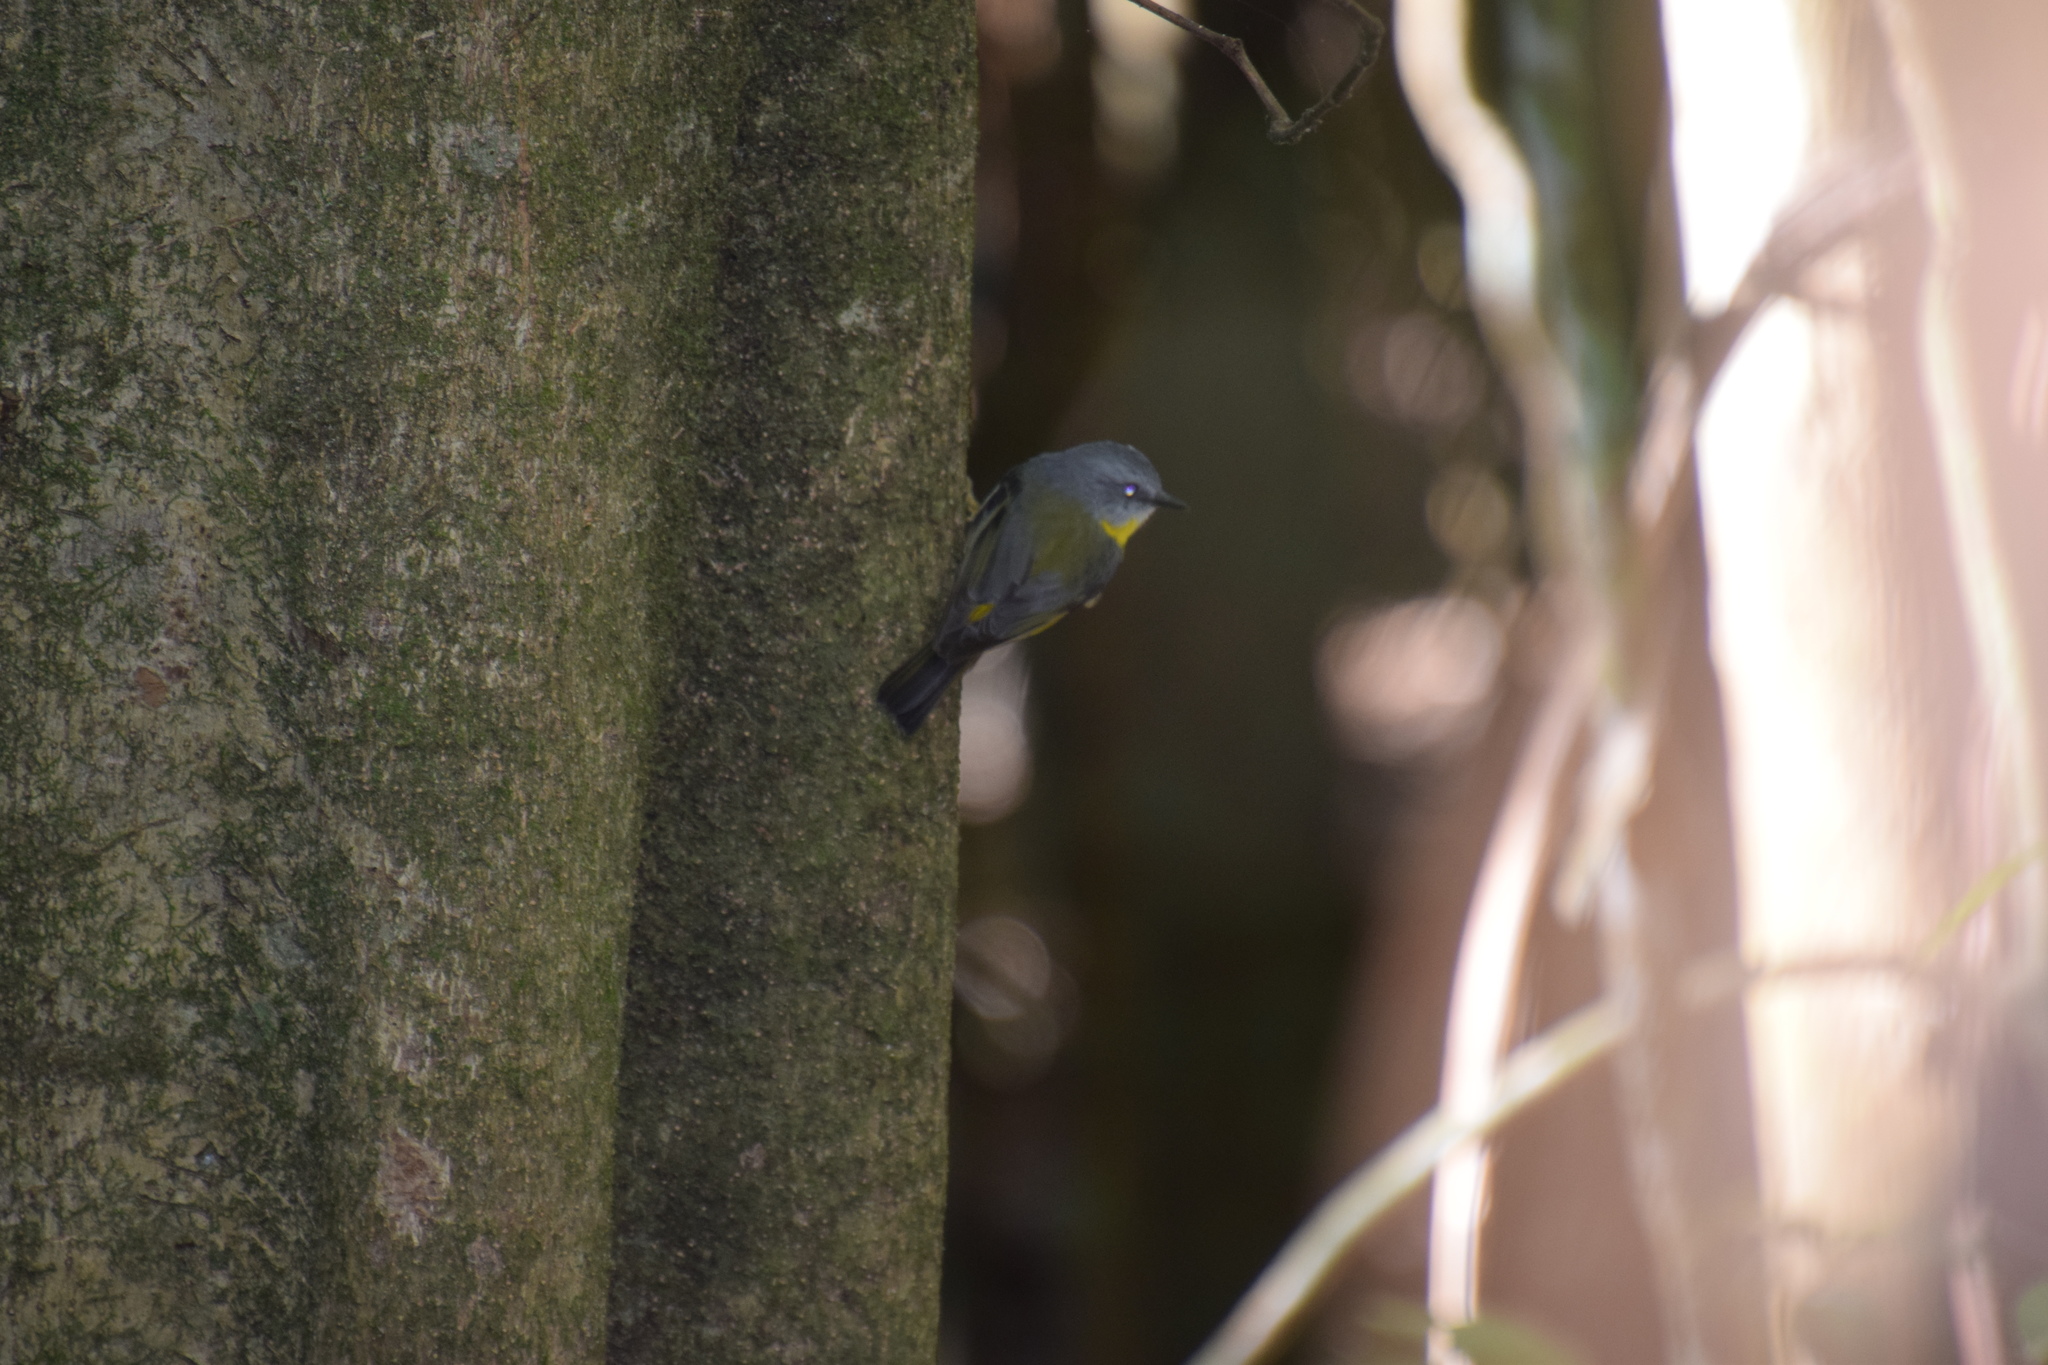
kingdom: Animalia
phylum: Chordata
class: Aves
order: Passeriformes
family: Petroicidae
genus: Eopsaltria
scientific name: Eopsaltria australis
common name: Eastern yellow robin
